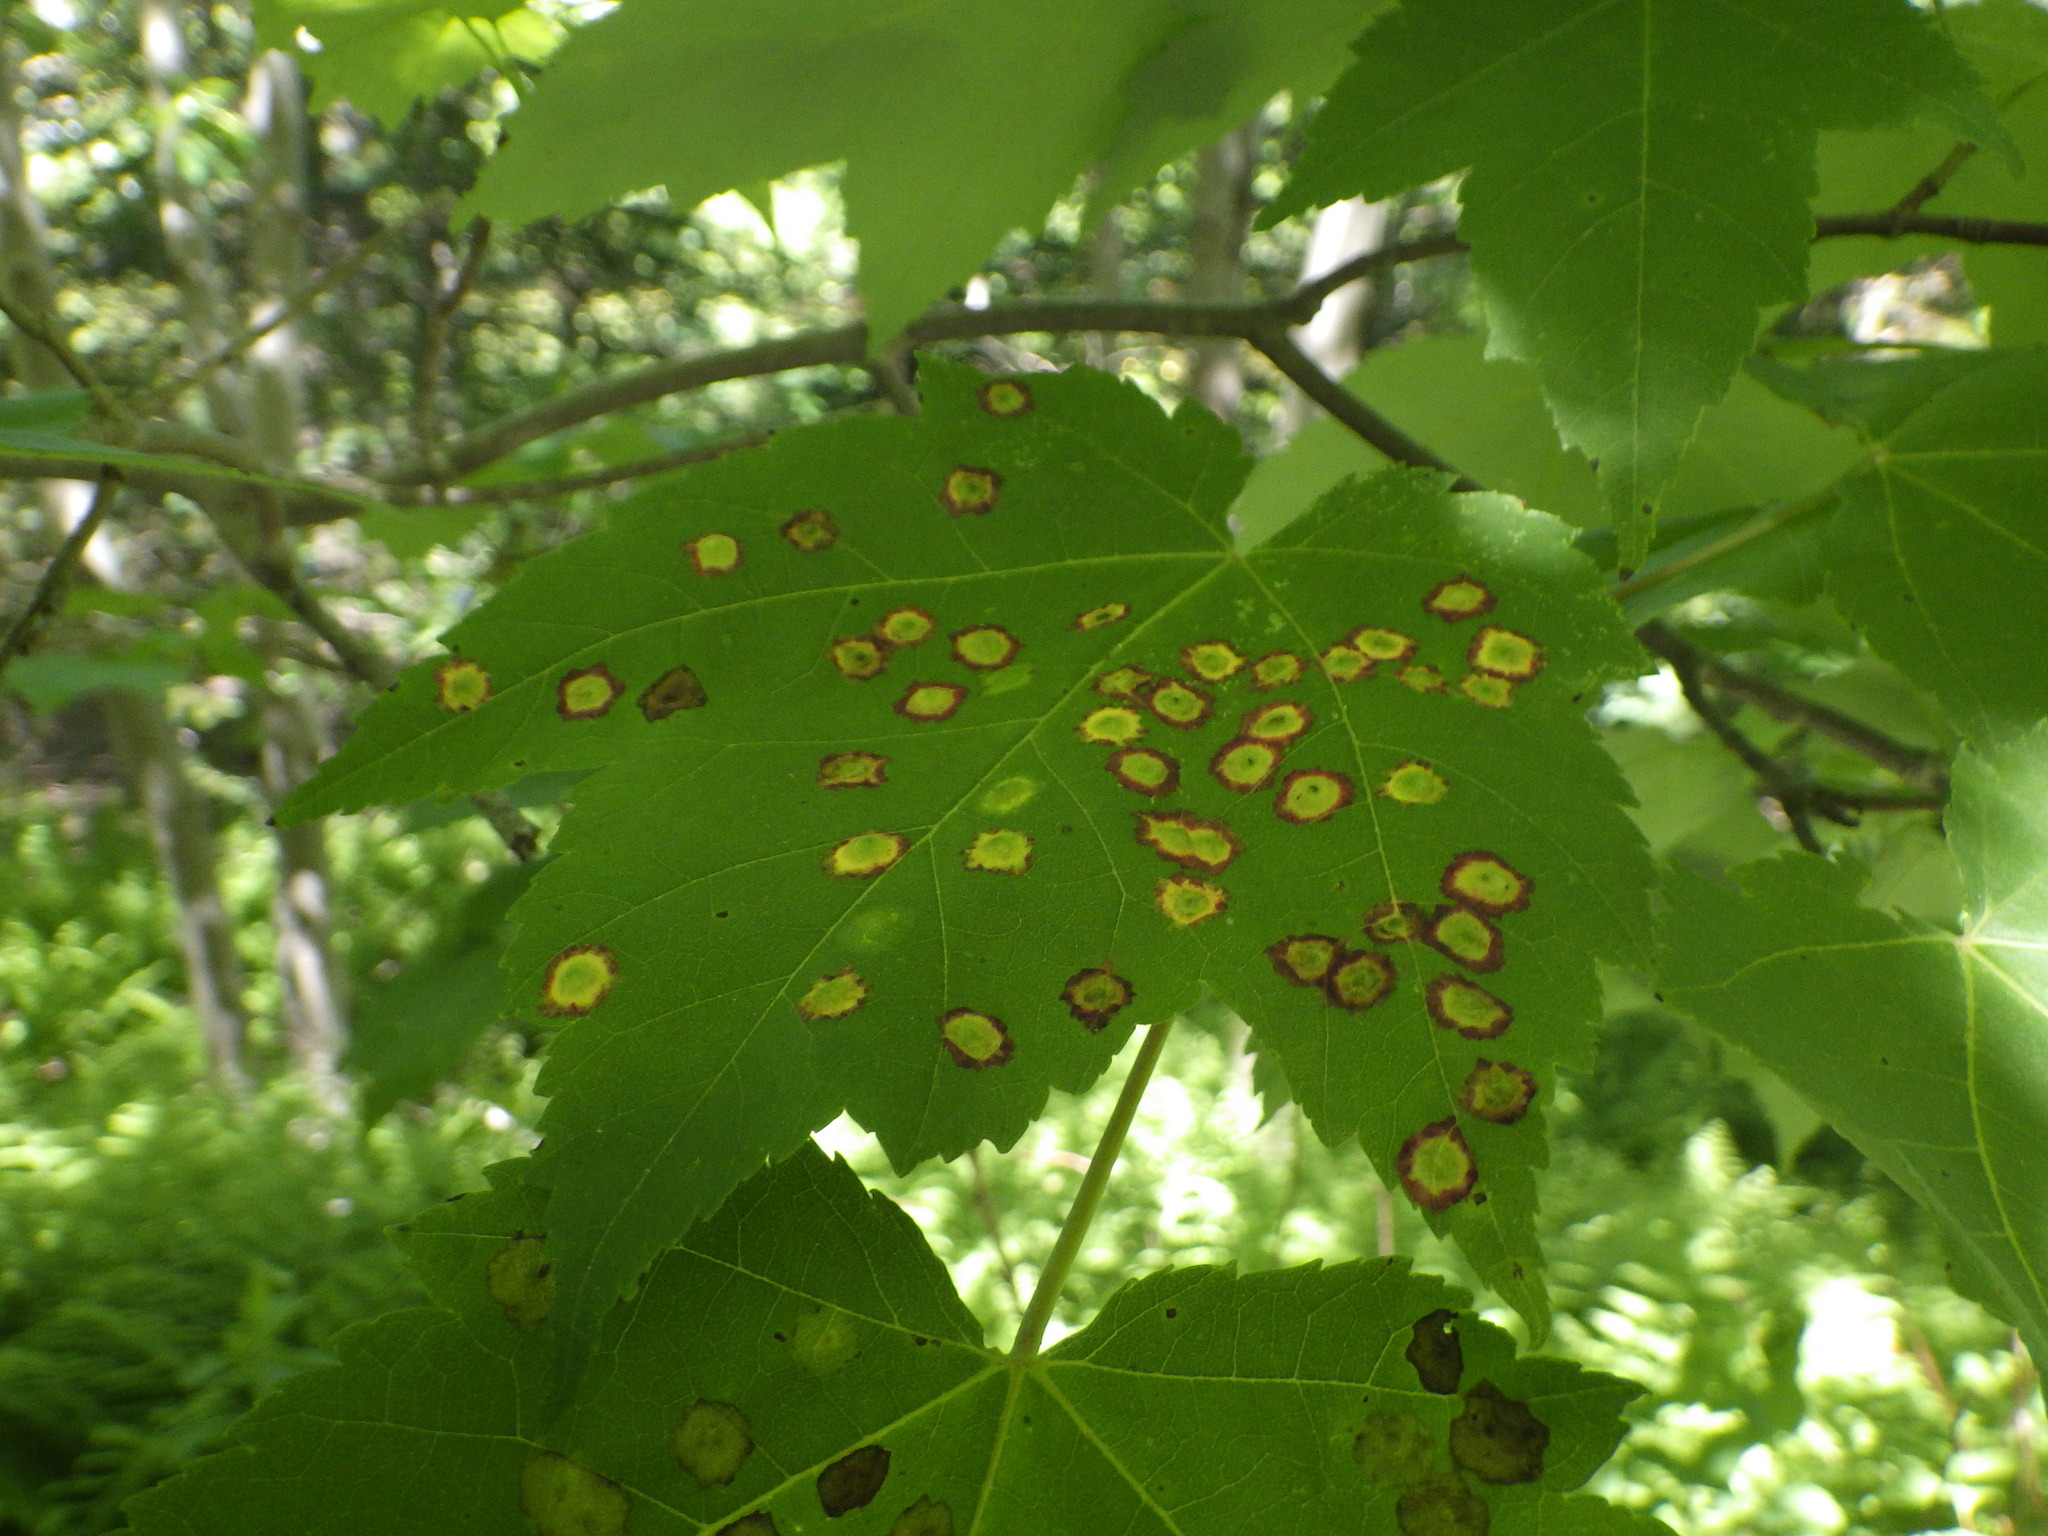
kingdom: Animalia
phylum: Arthropoda
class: Insecta
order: Diptera
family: Cecidomyiidae
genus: Acericecis
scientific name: Acericecis ocellaris
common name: Ocellate gall midge
